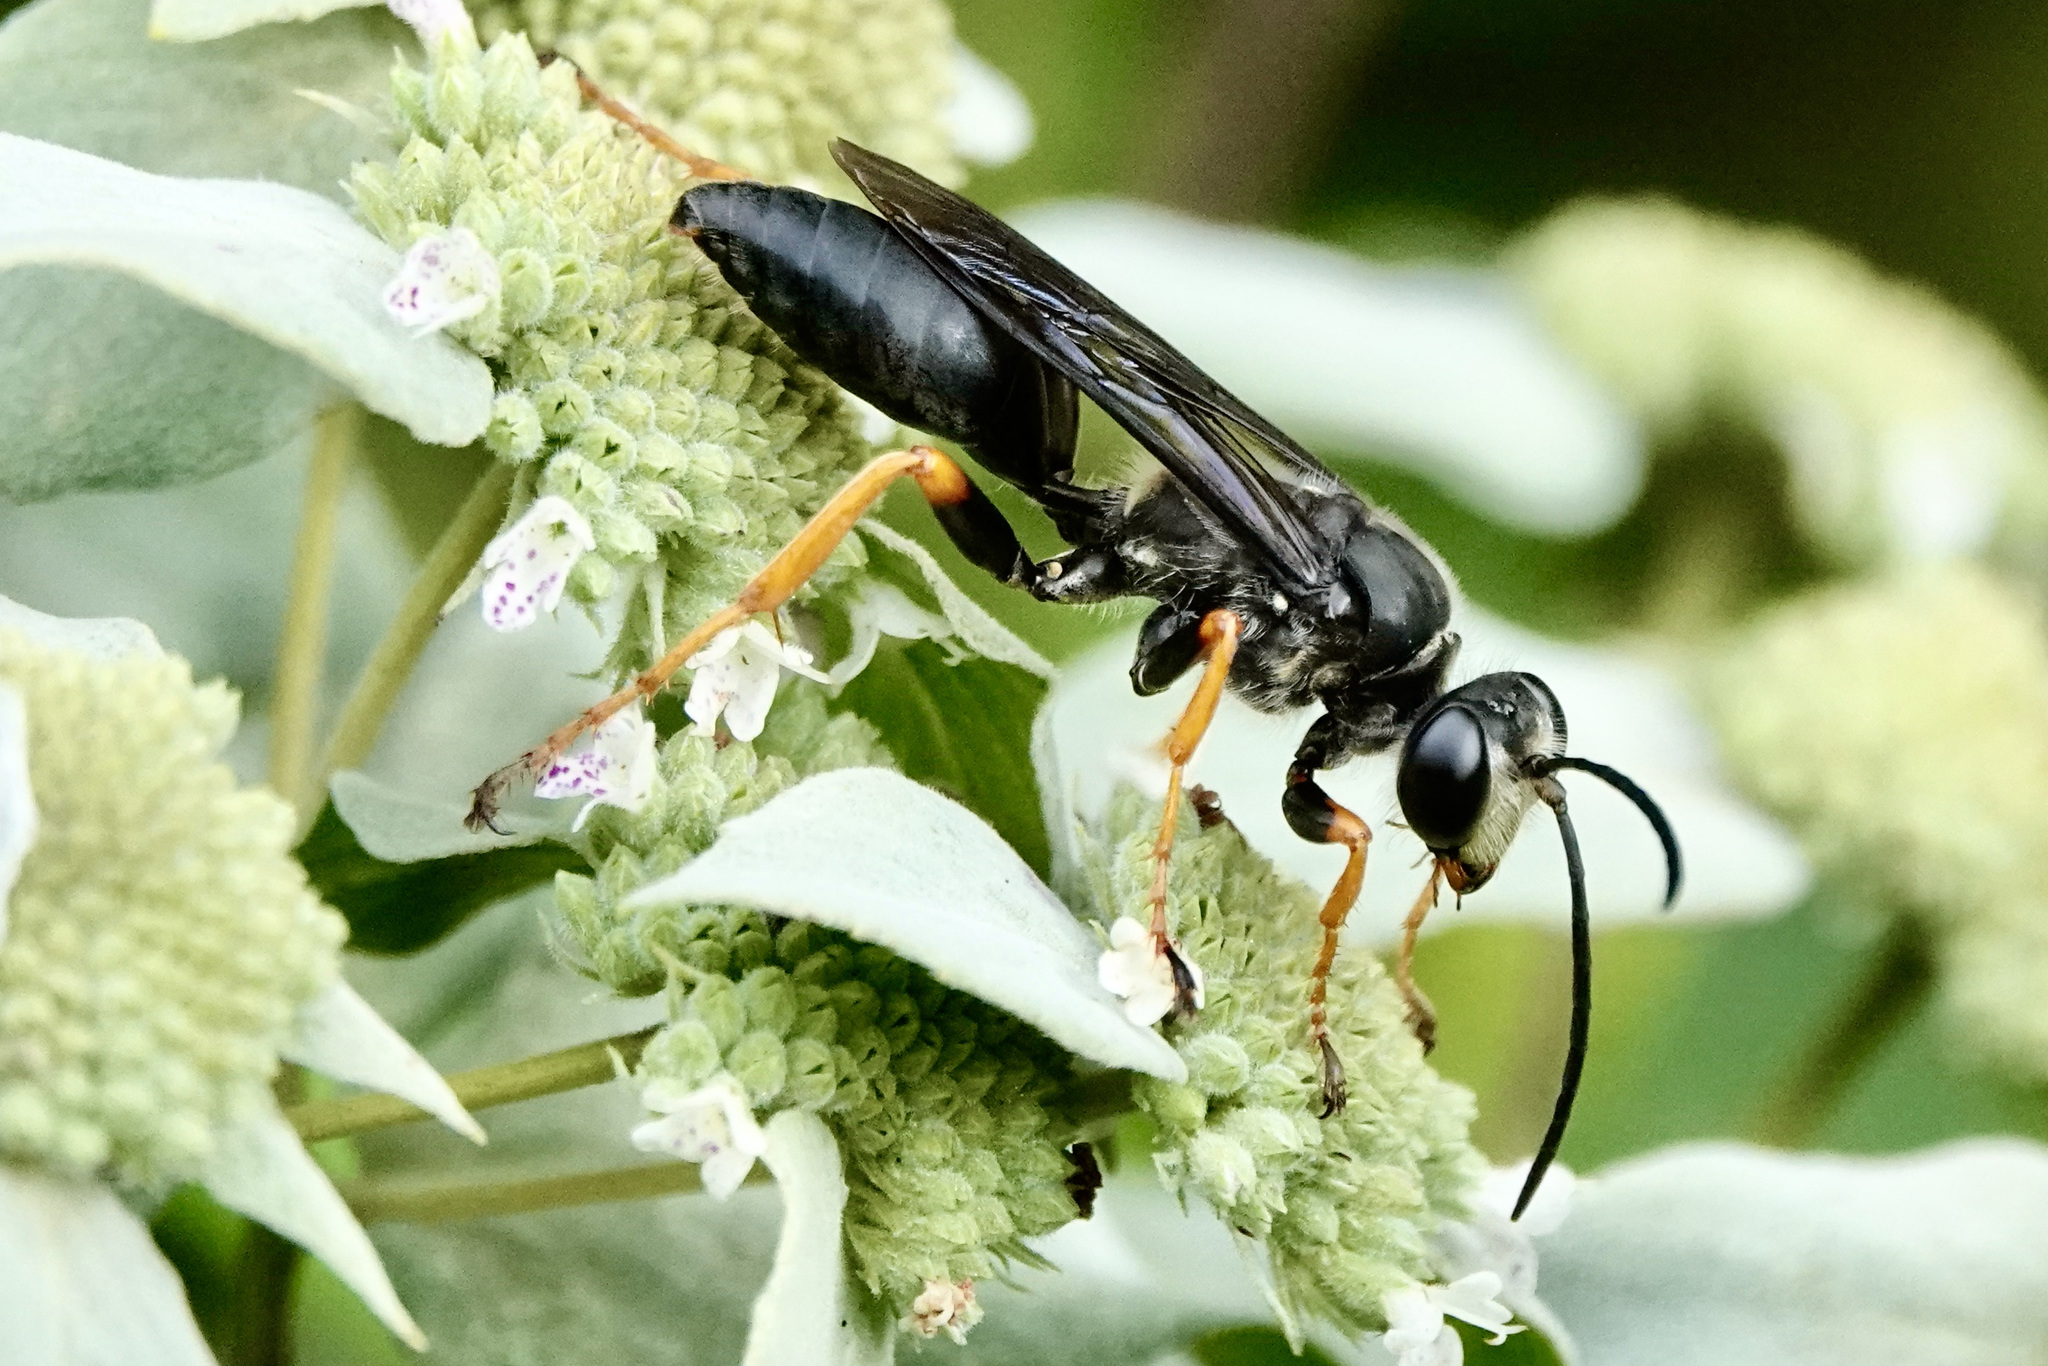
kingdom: Animalia
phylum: Arthropoda
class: Insecta
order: Hymenoptera
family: Sphecidae
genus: Sphex
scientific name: Sphex nudus
